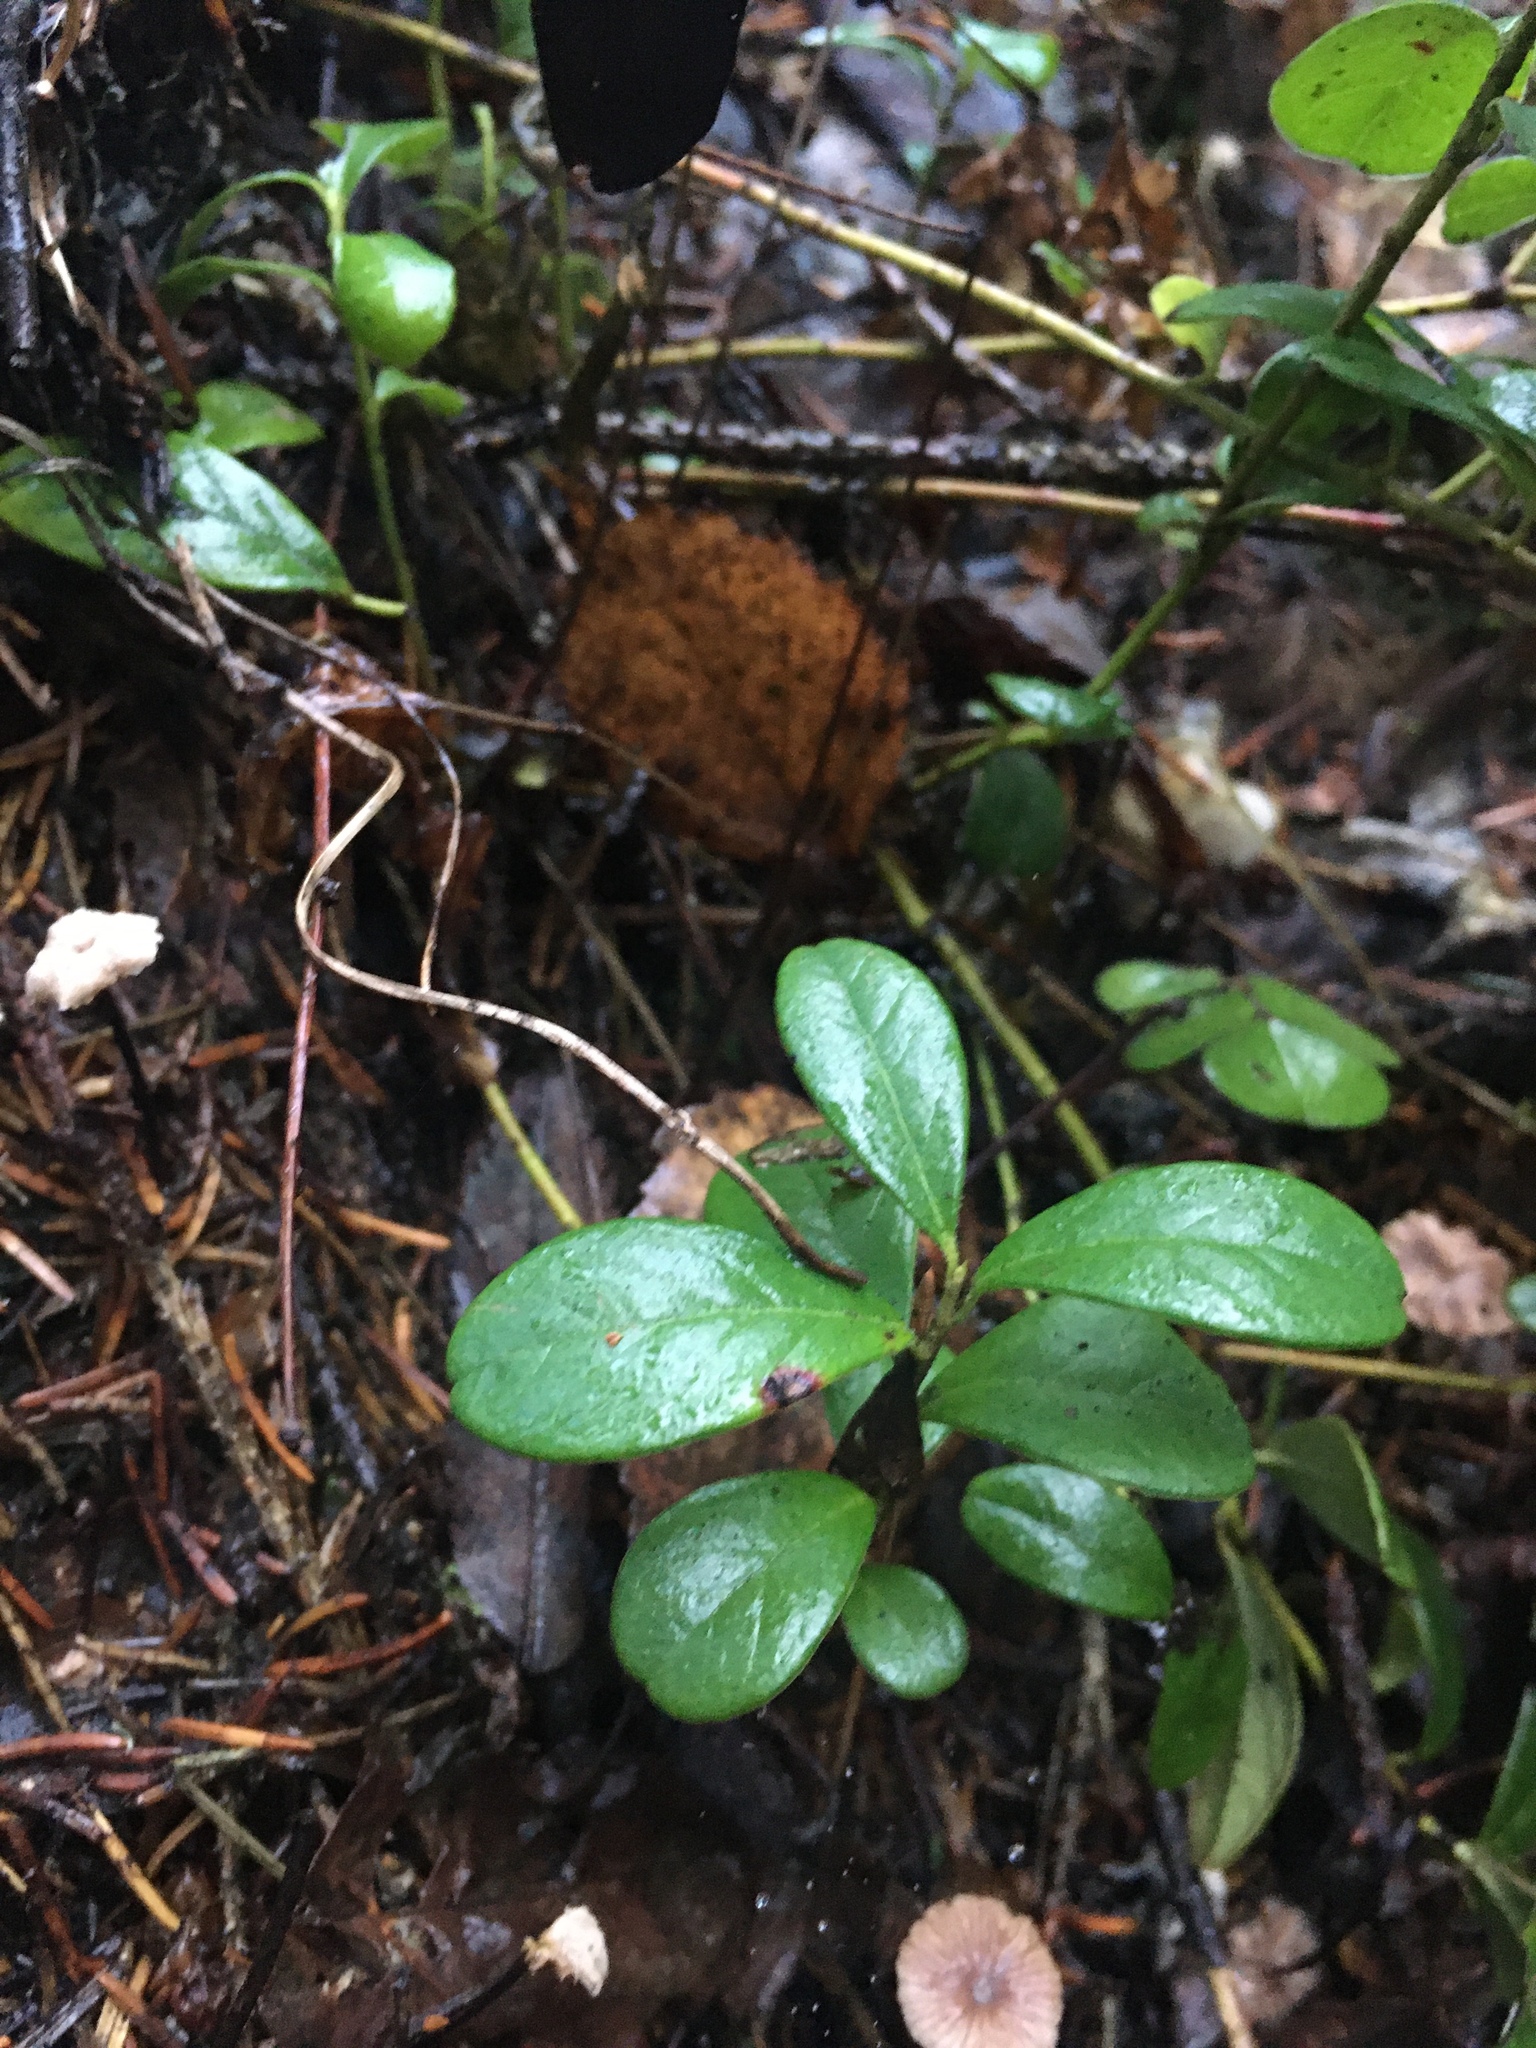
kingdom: Plantae
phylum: Tracheophyta
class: Magnoliopsida
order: Ericales
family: Ericaceae
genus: Vaccinium
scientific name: Vaccinium vitis-idaea
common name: Cowberry
